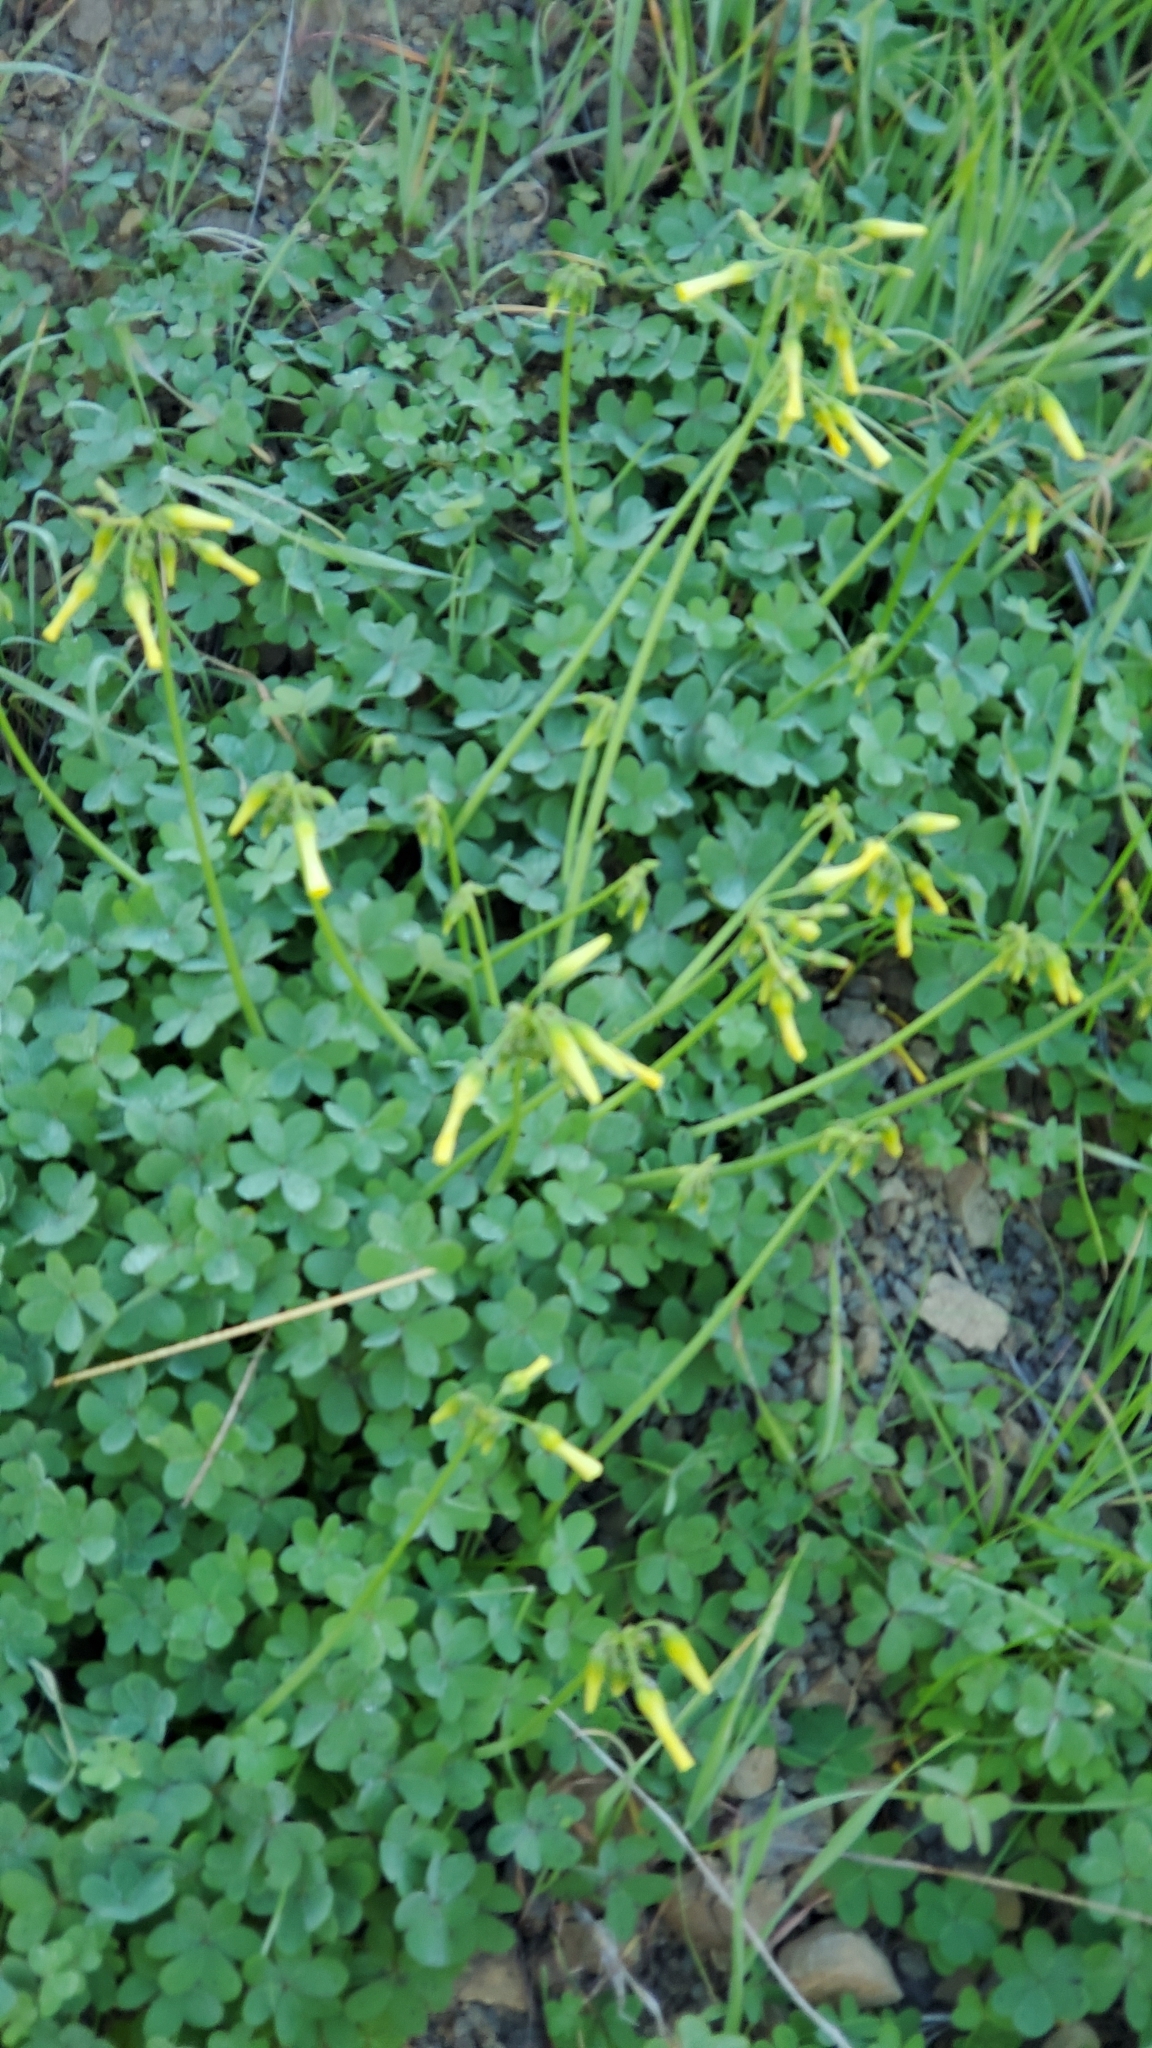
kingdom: Plantae
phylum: Tracheophyta
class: Magnoliopsida
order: Oxalidales
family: Oxalidaceae
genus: Oxalis
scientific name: Oxalis pes-caprae
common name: Bermuda-buttercup
